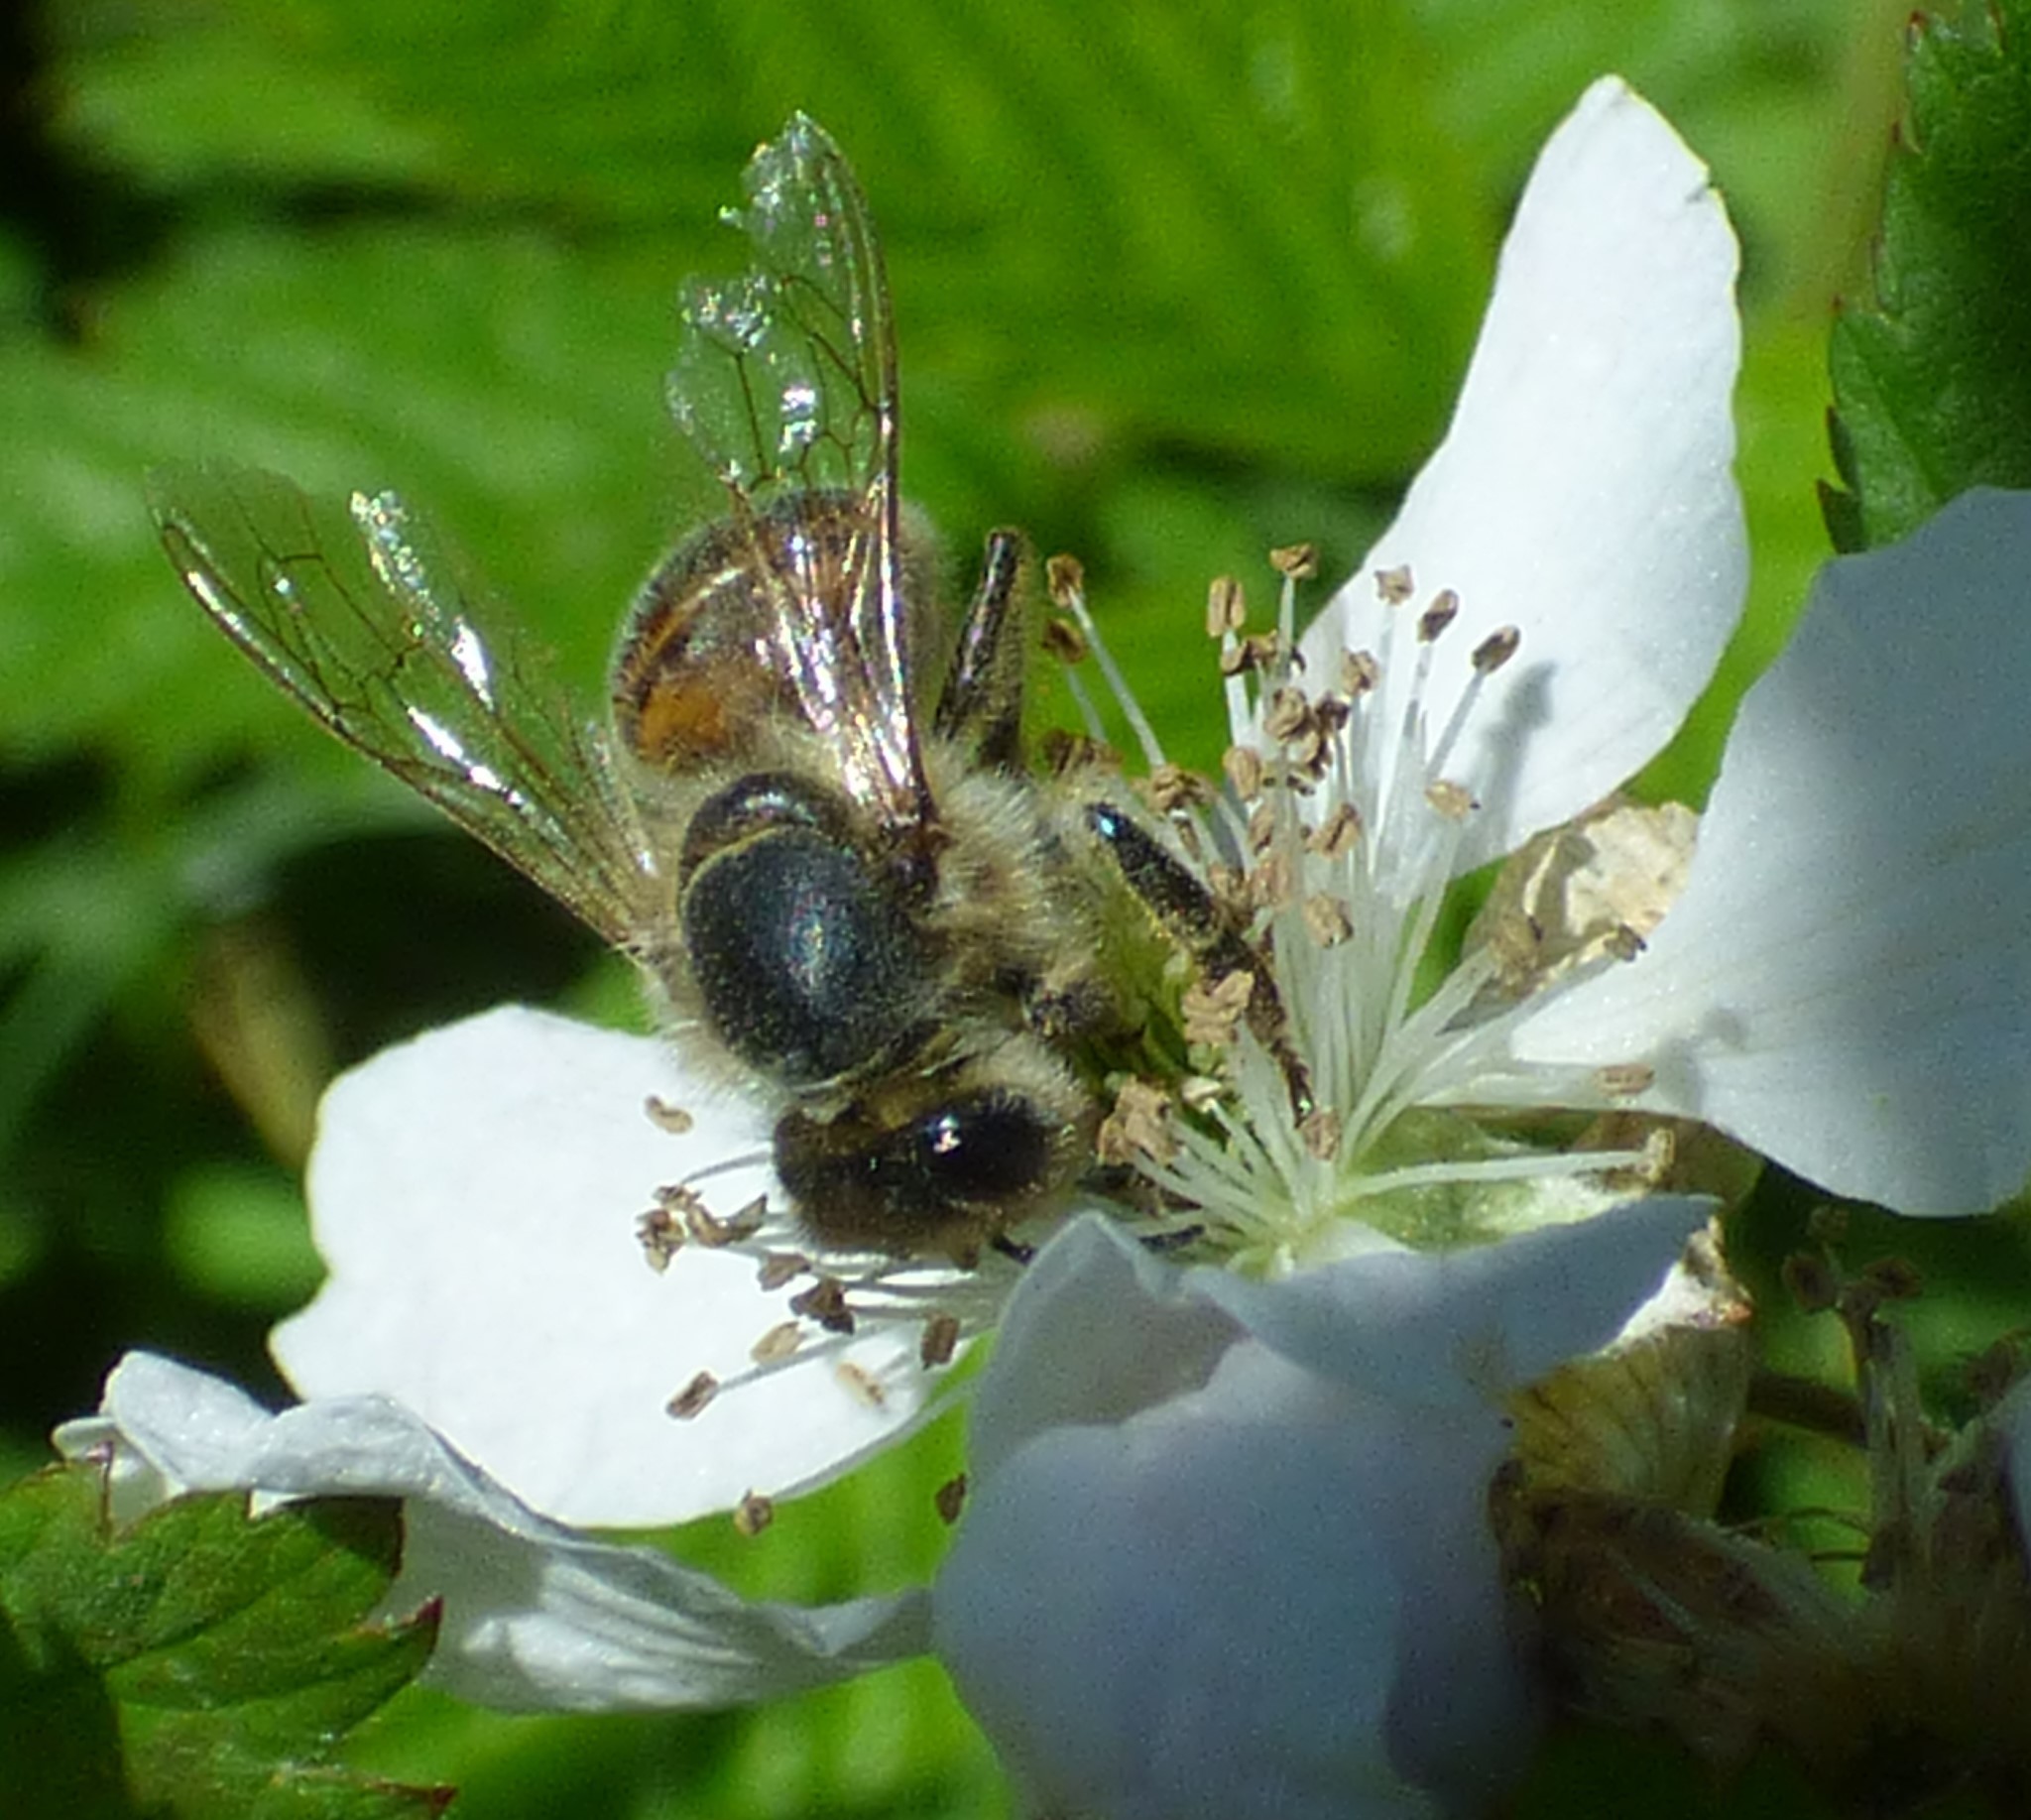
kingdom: Animalia
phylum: Arthropoda
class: Insecta
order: Hymenoptera
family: Apidae
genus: Apis
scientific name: Apis mellifera
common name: Honey bee
